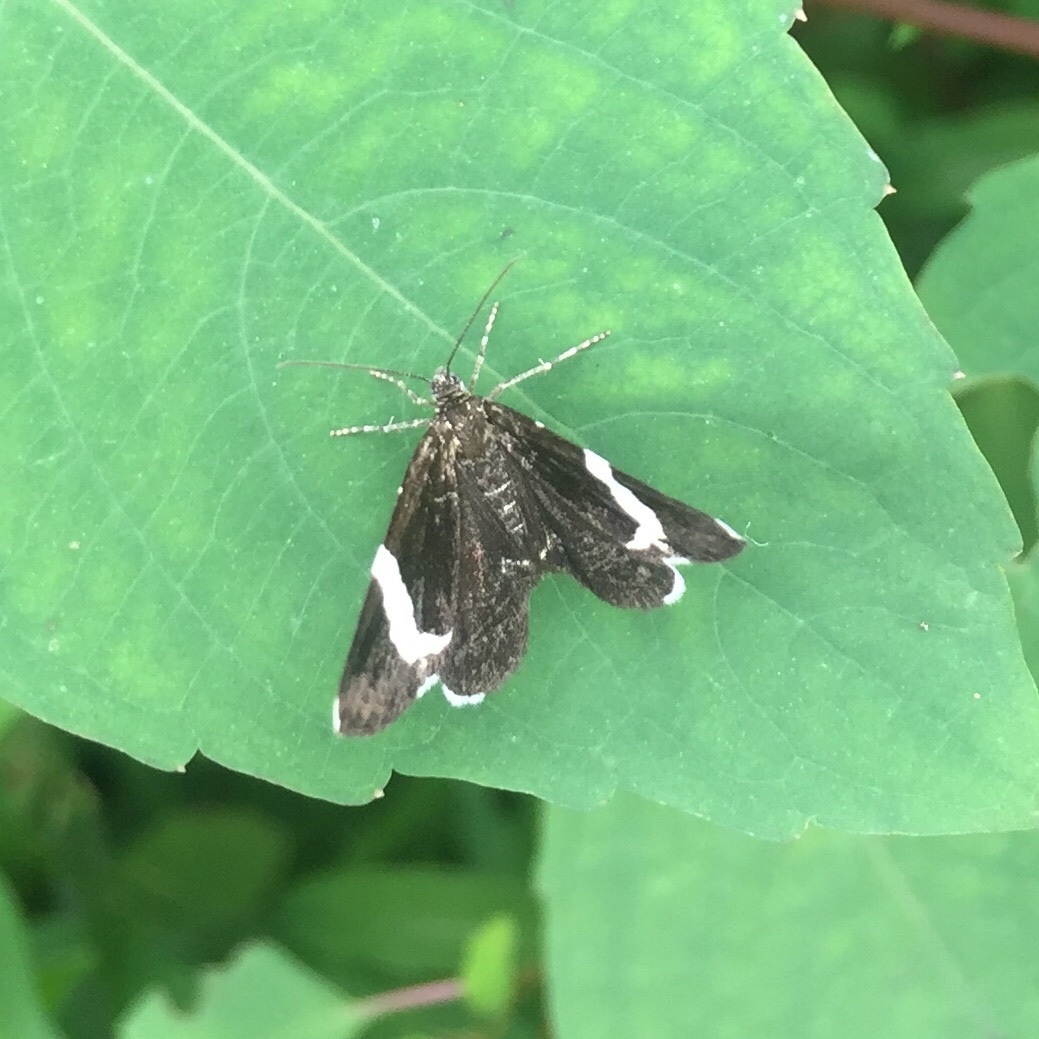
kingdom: Animalia
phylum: Arthropoda
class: Insecta
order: Lepidoptera
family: Geometridae
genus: Trichodezia
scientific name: Trichodezia albovittata
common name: White striped black
